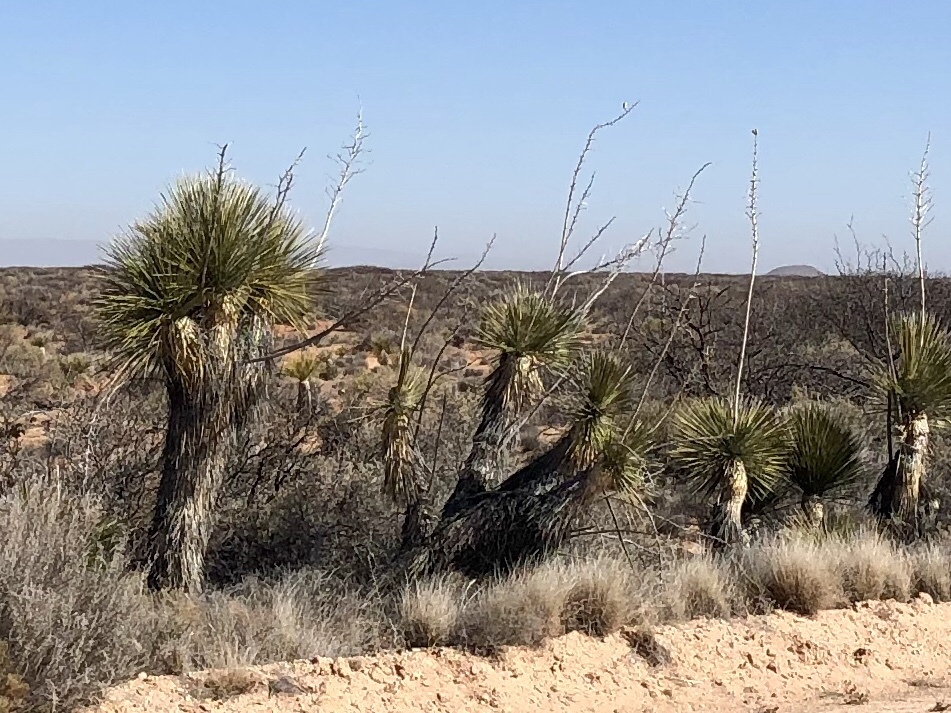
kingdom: Plantae
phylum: Tracheophyta
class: Liliopsida
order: Asparagales
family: Asparagaceae
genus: Yucca
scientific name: Yucca elata
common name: Palmella
